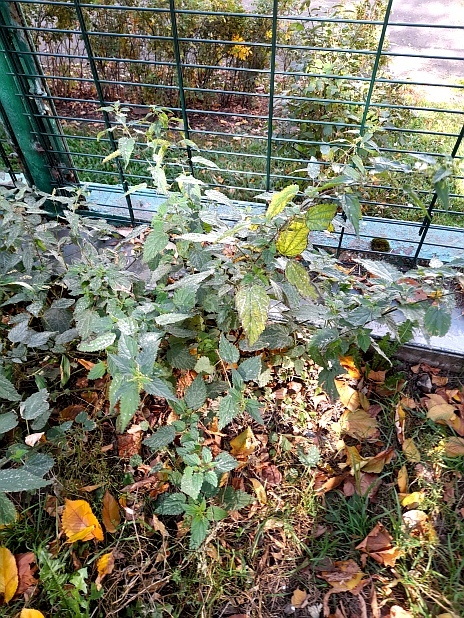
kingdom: Plantae
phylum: Tracheophyta
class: Magnoliopsida
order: Rosales
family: Urticaceae
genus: Urtica
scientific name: Urtica dioica
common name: Common nettle
